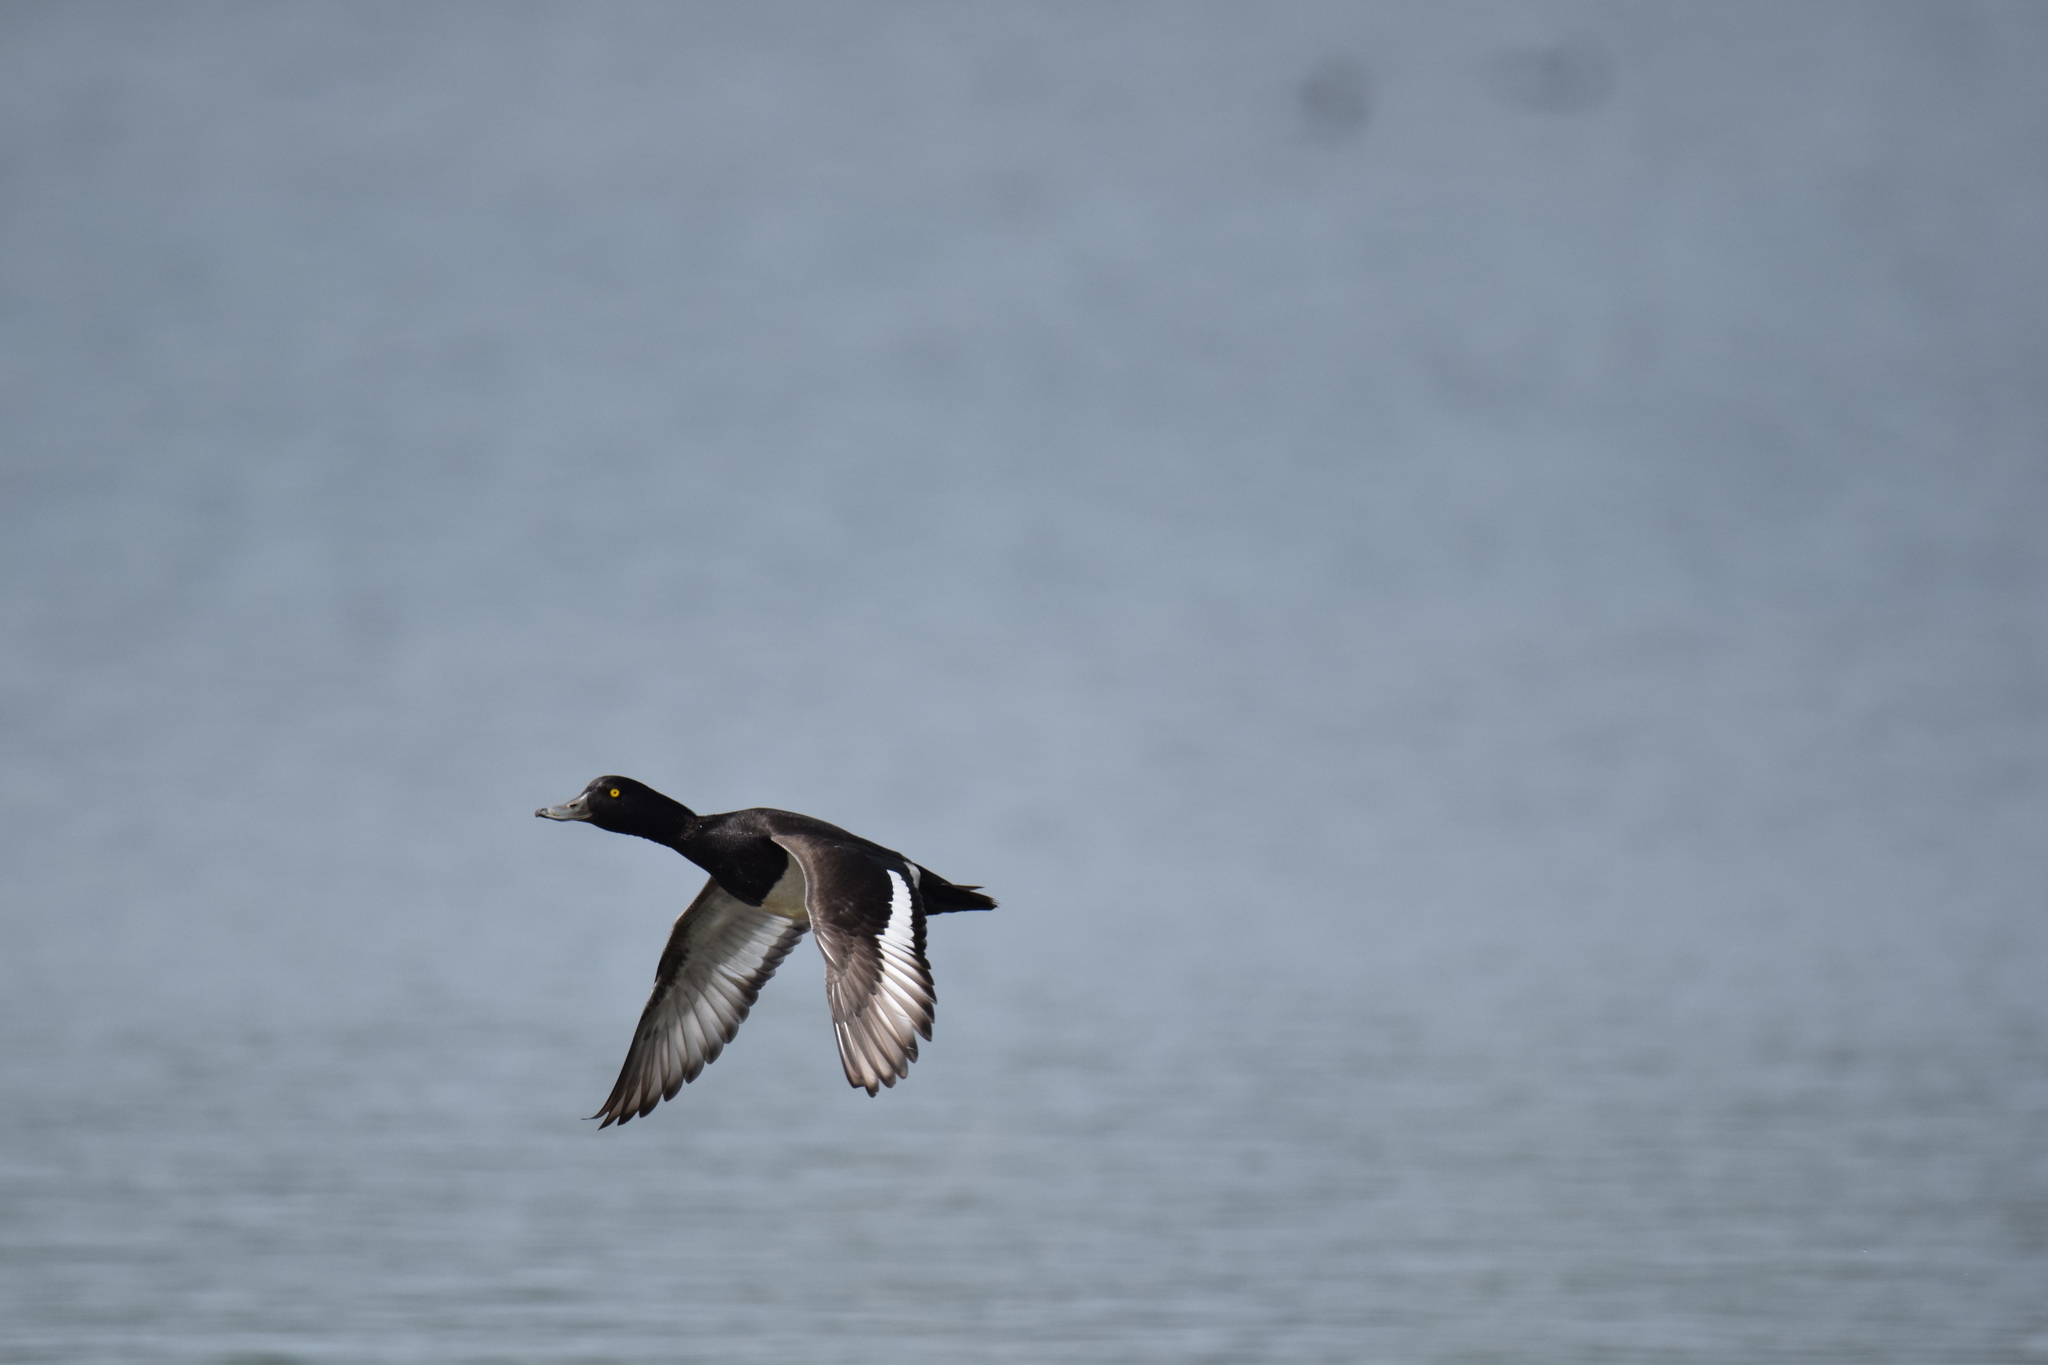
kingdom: Animalia
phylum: Chordata
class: Aves
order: Anseriformes
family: Anatidae
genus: Aythya
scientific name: Aythya fuligula
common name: Tufted duck
